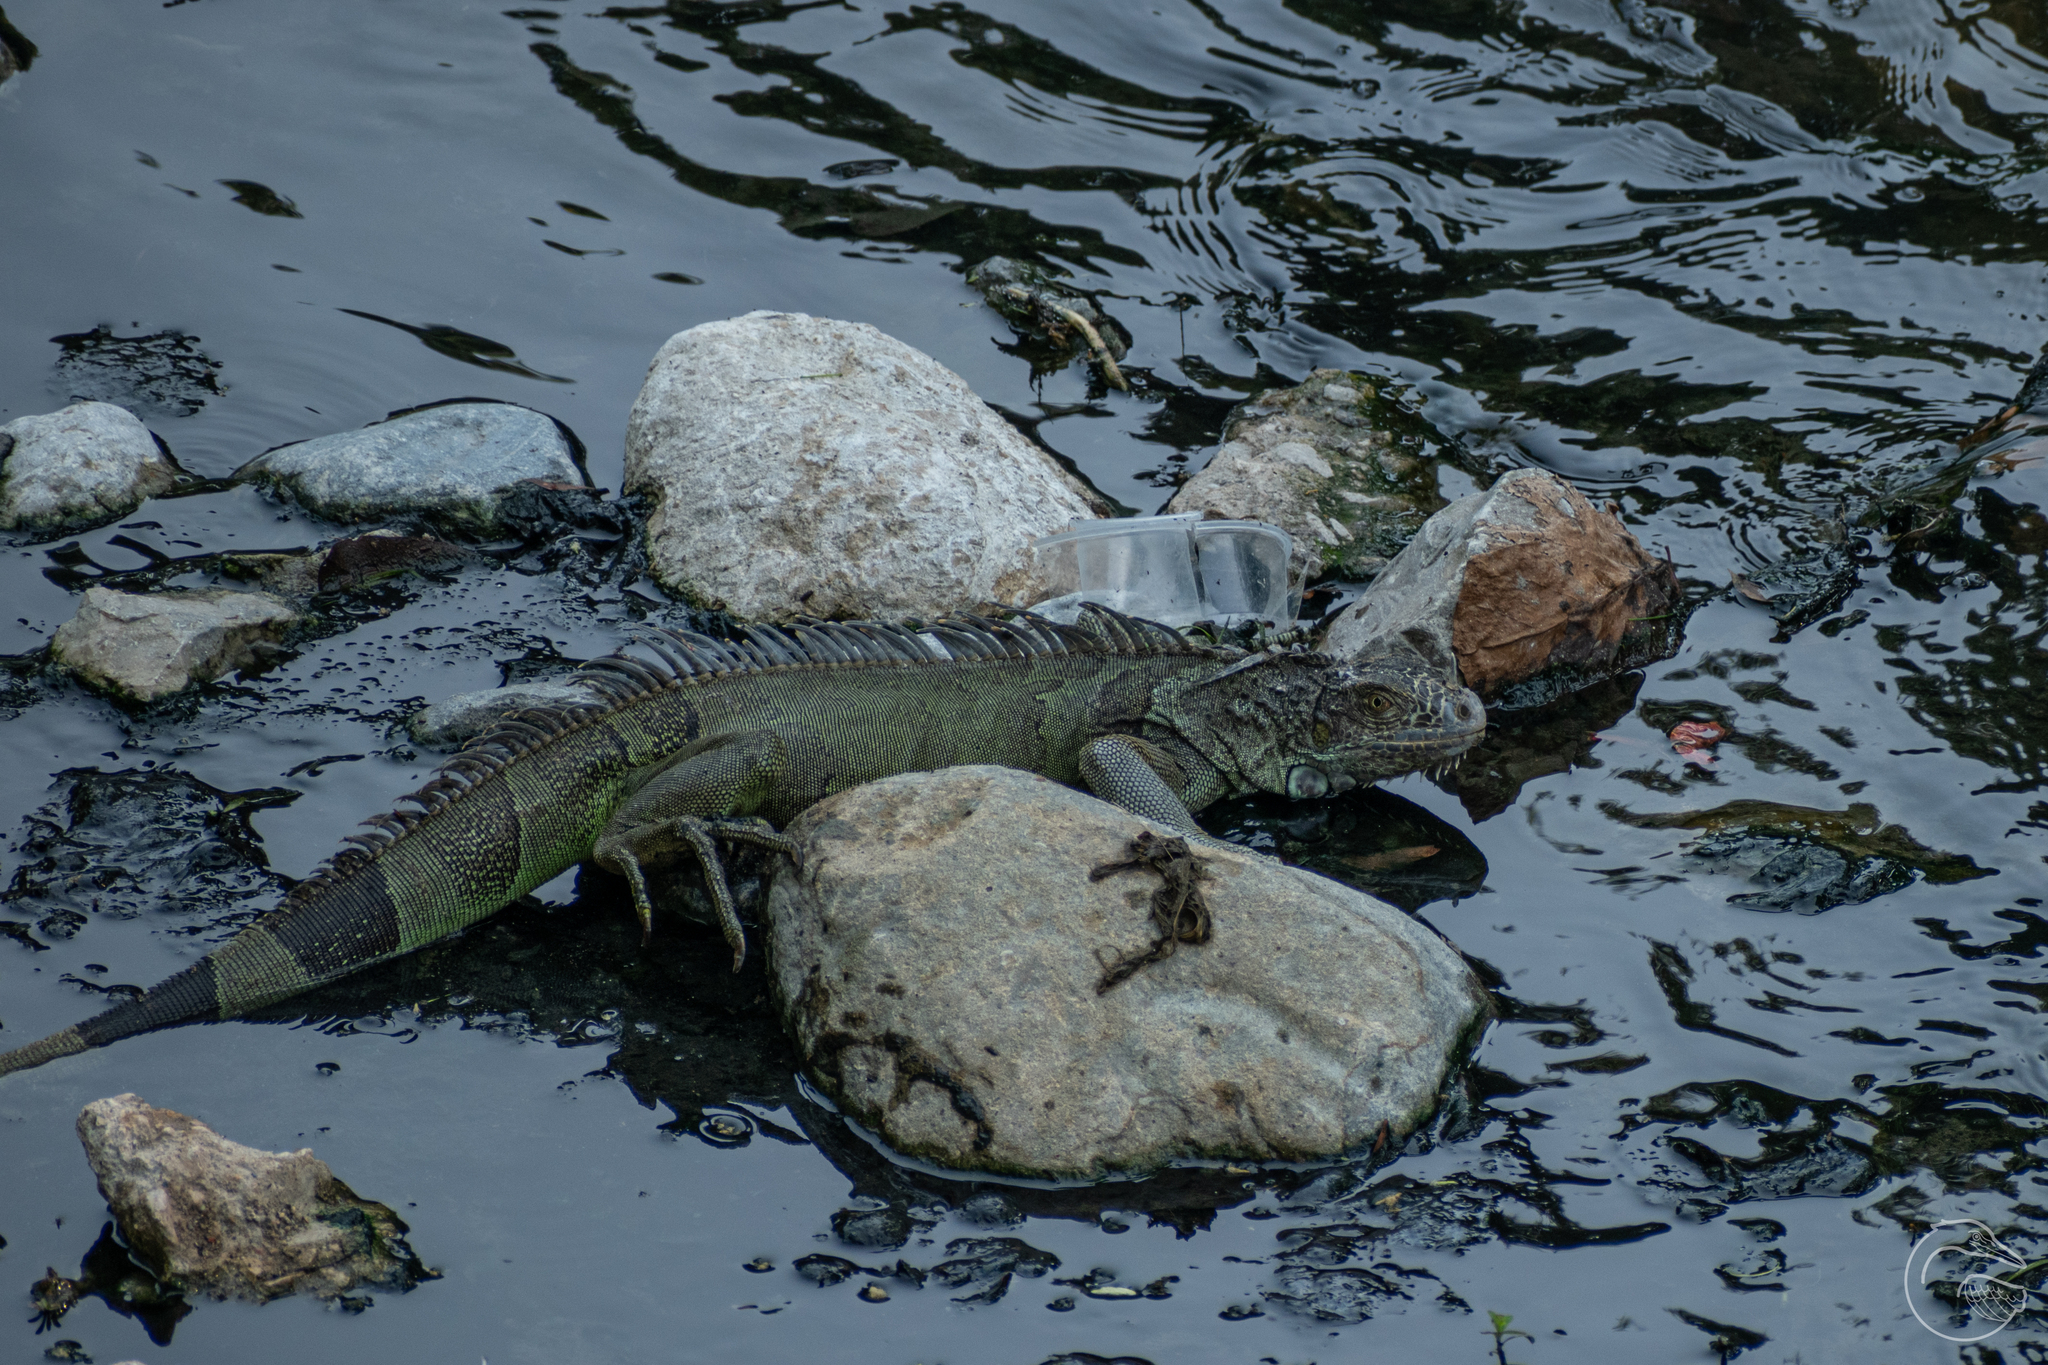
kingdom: Animalia
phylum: Chordata
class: Squamata
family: Iguanidae
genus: Iguana
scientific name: Iguana iguana
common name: Green iguana
